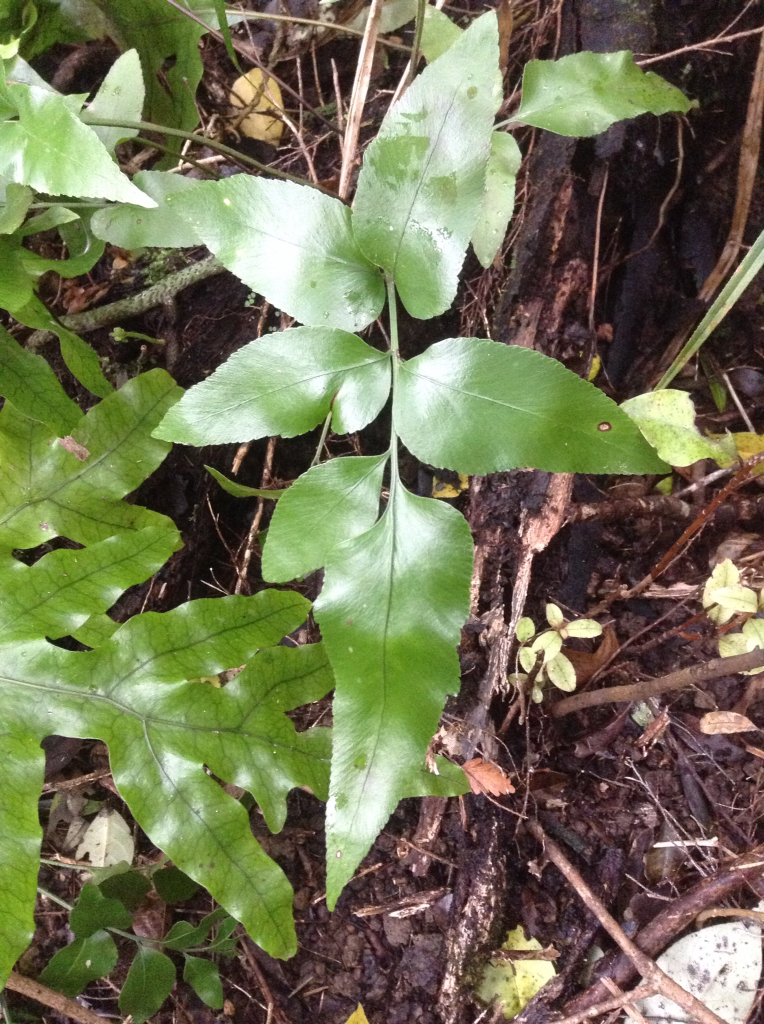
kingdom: Plantae
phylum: Tracheophyta
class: Polypodiopsida
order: Polypodiales
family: Aspleniaceae
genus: Asplenium
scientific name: Asplenium oblongifolium
